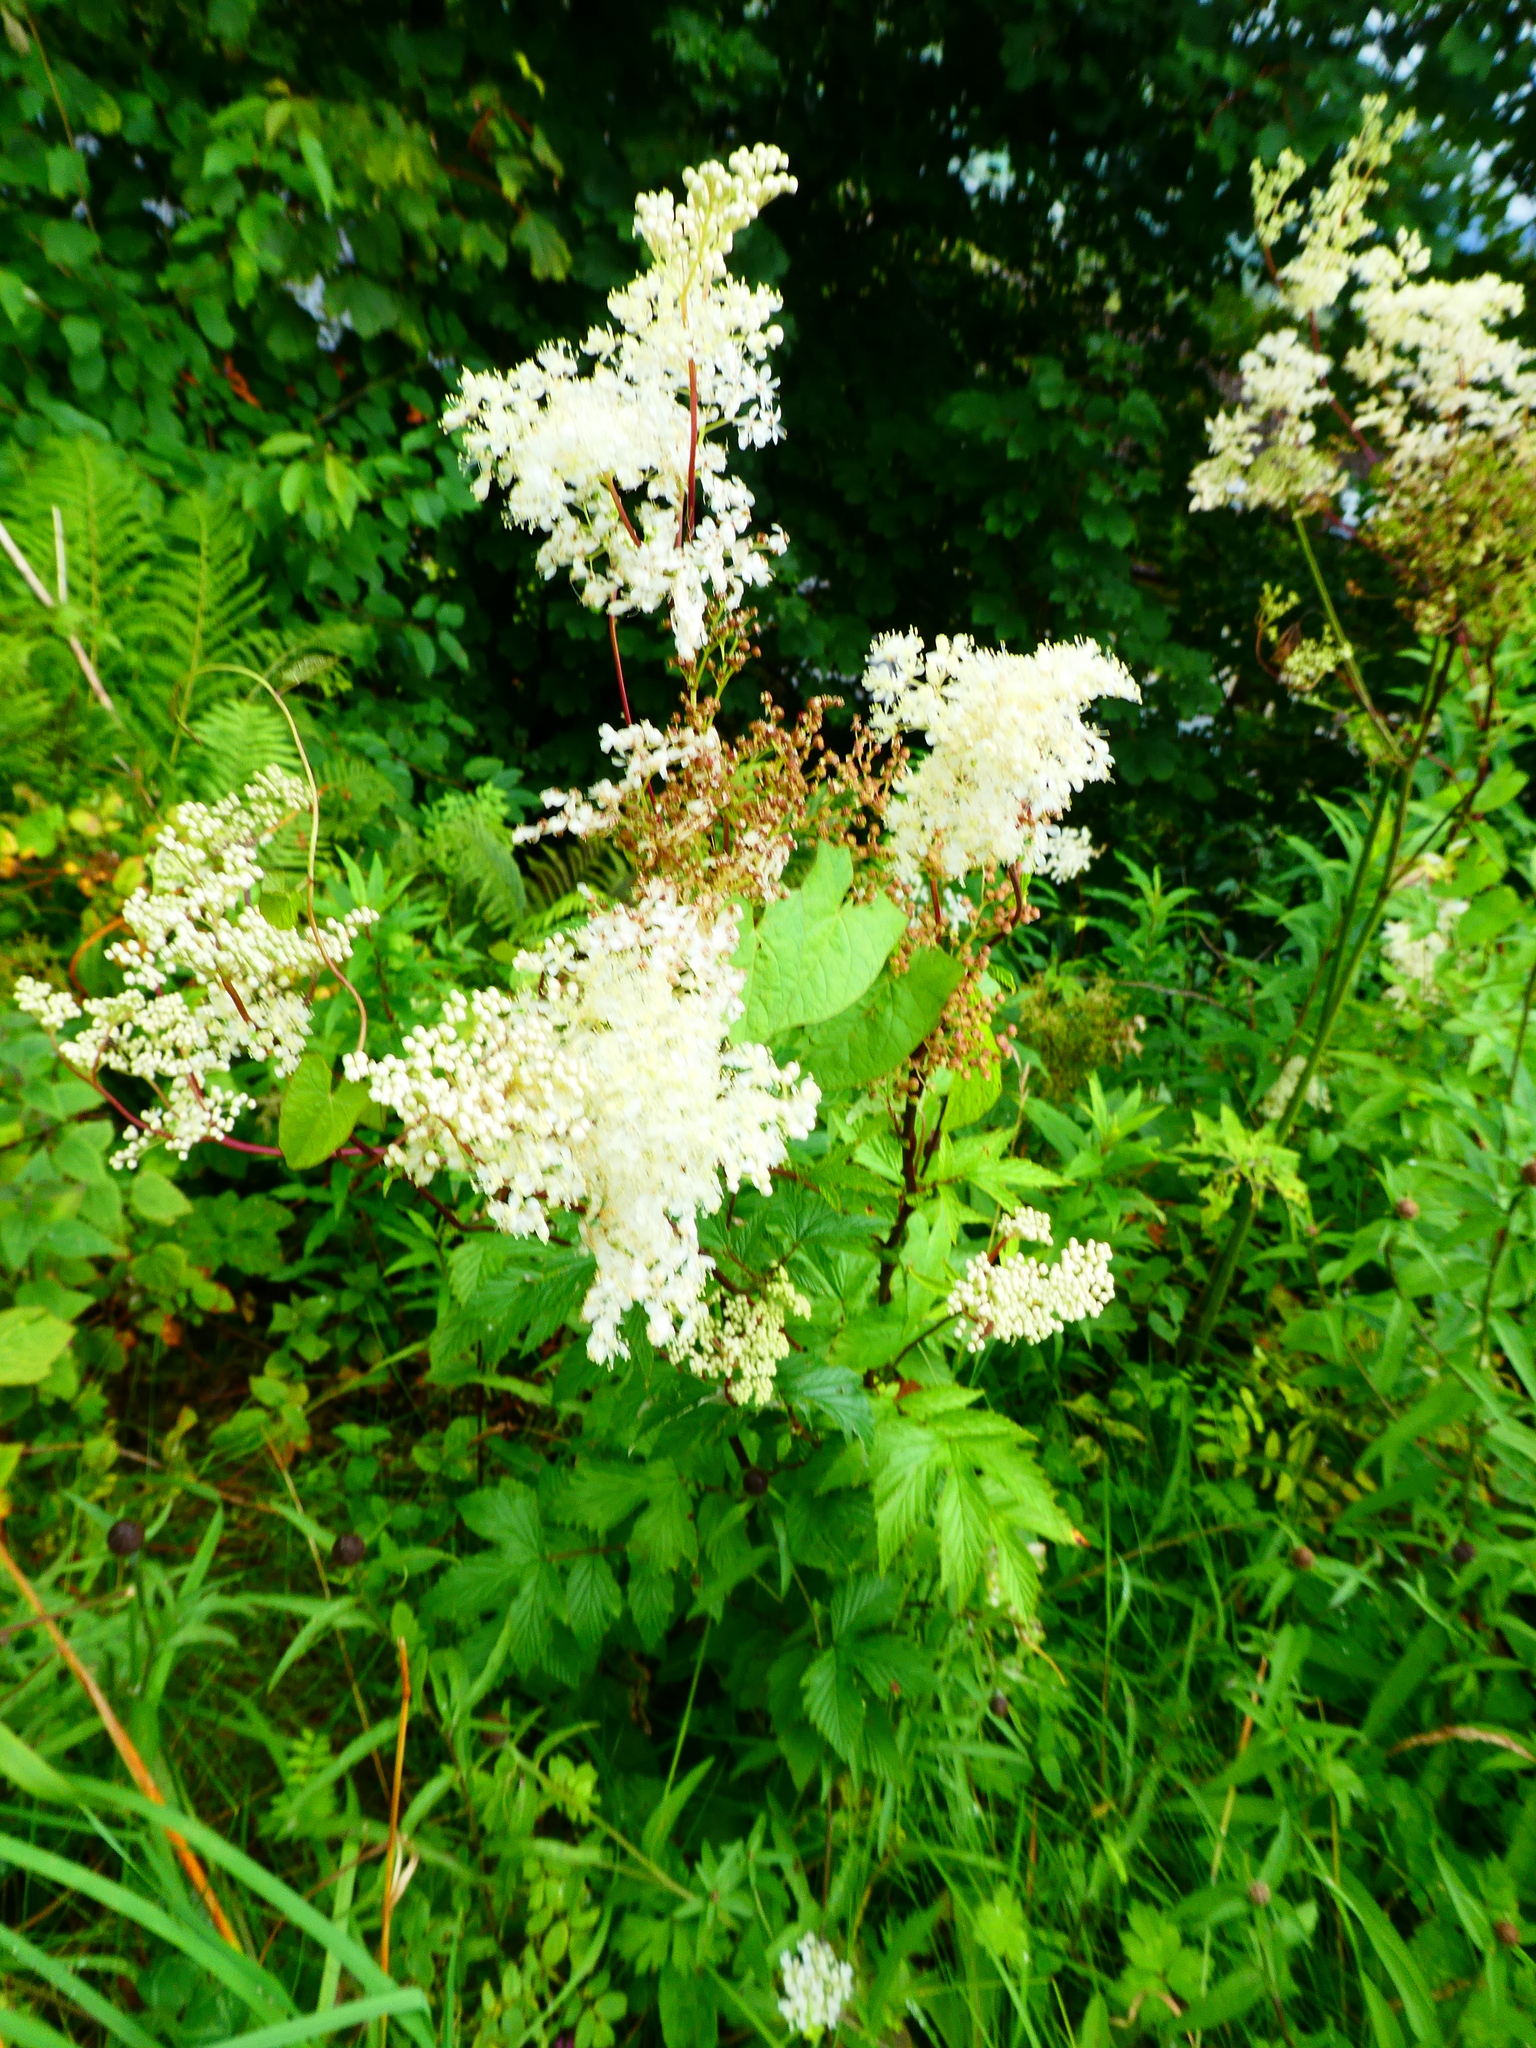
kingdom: Plantae
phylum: Tracheophyta
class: Magnoliopsida
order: Rosales
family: Rosaceae
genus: Filipendula
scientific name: Filipendula ulmaria
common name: Meadowsweet
